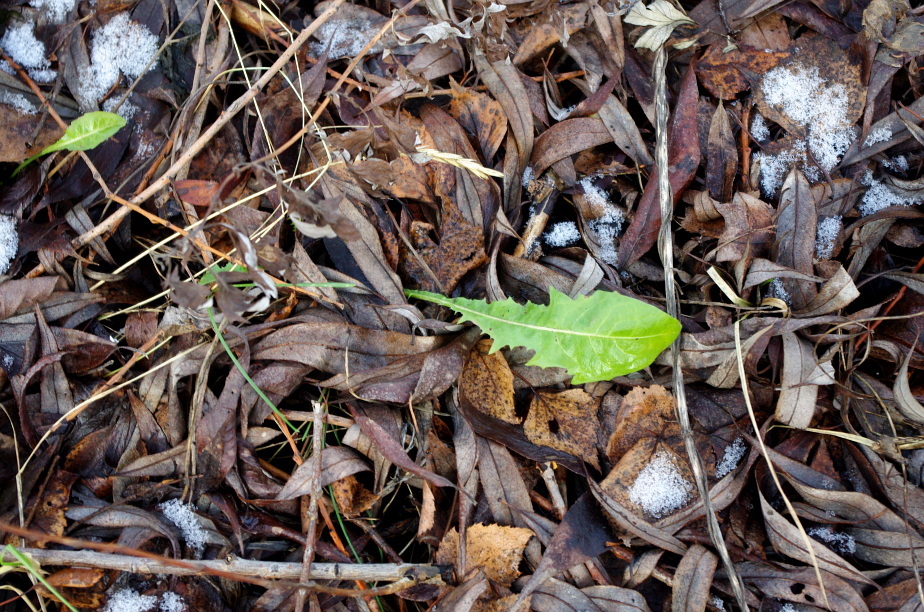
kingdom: Plantae
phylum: Tracheophyta
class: Magnoliopsida
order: Asterales
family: Asteraceae
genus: Taraxacum
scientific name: Taraxacum officinale
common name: Common dandelion
